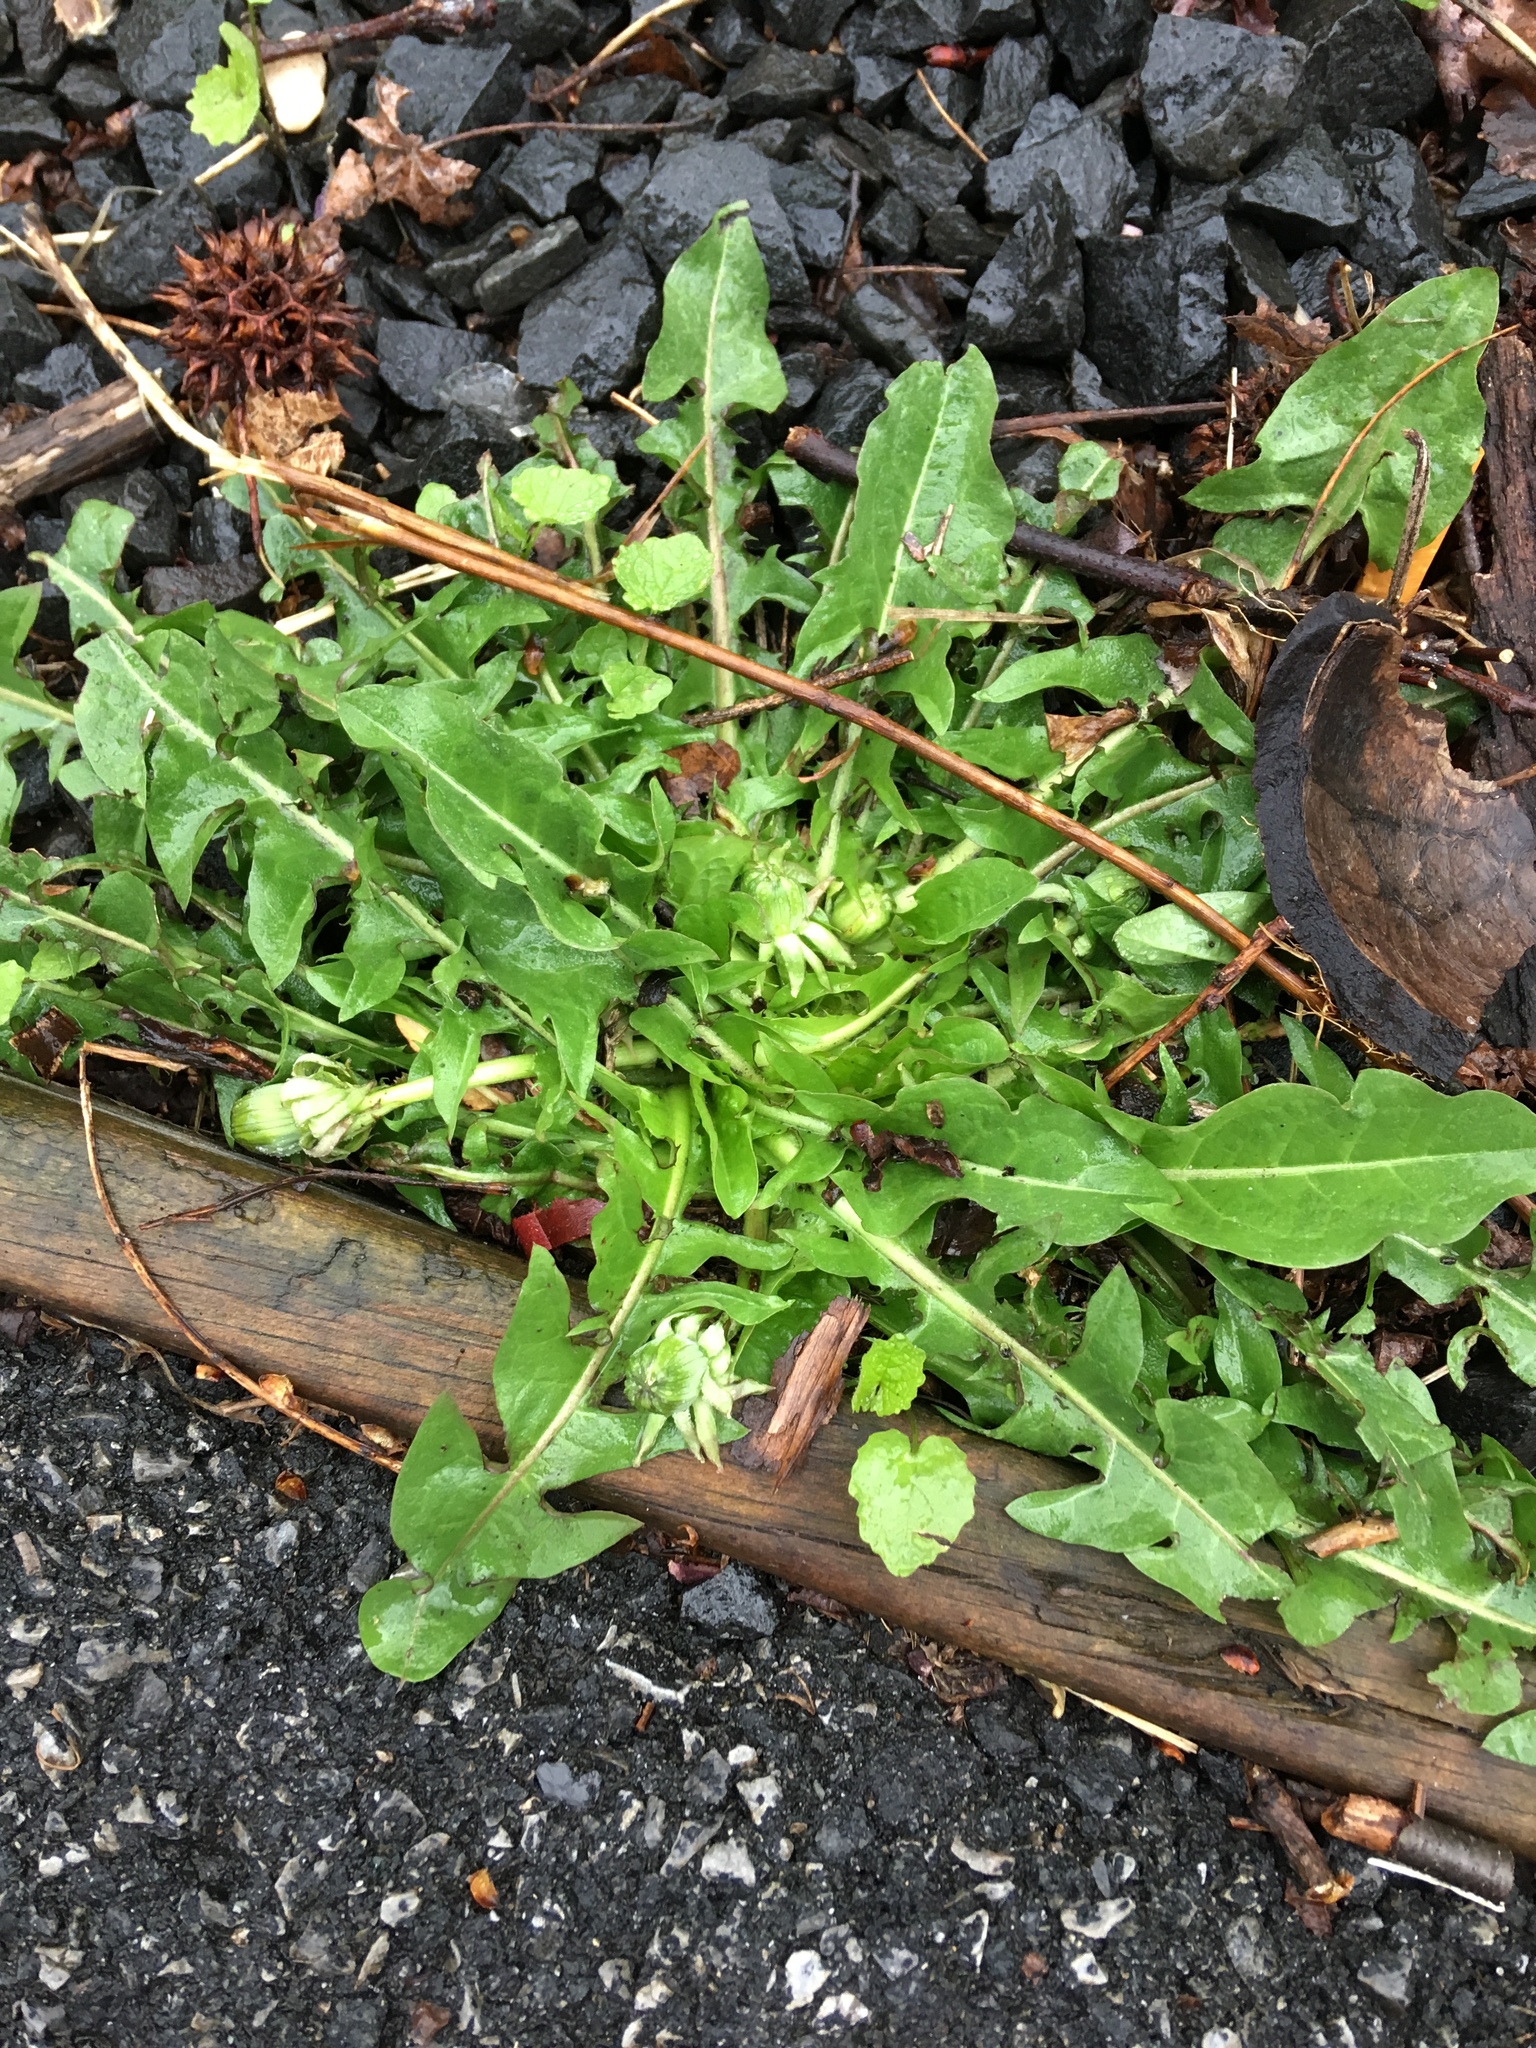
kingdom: Plantae
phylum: Tracheophyta
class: Magnoliopsida
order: Asterales
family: Asteraceae
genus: Taraxacum
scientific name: Taraxacum officinale
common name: Common dandelion
